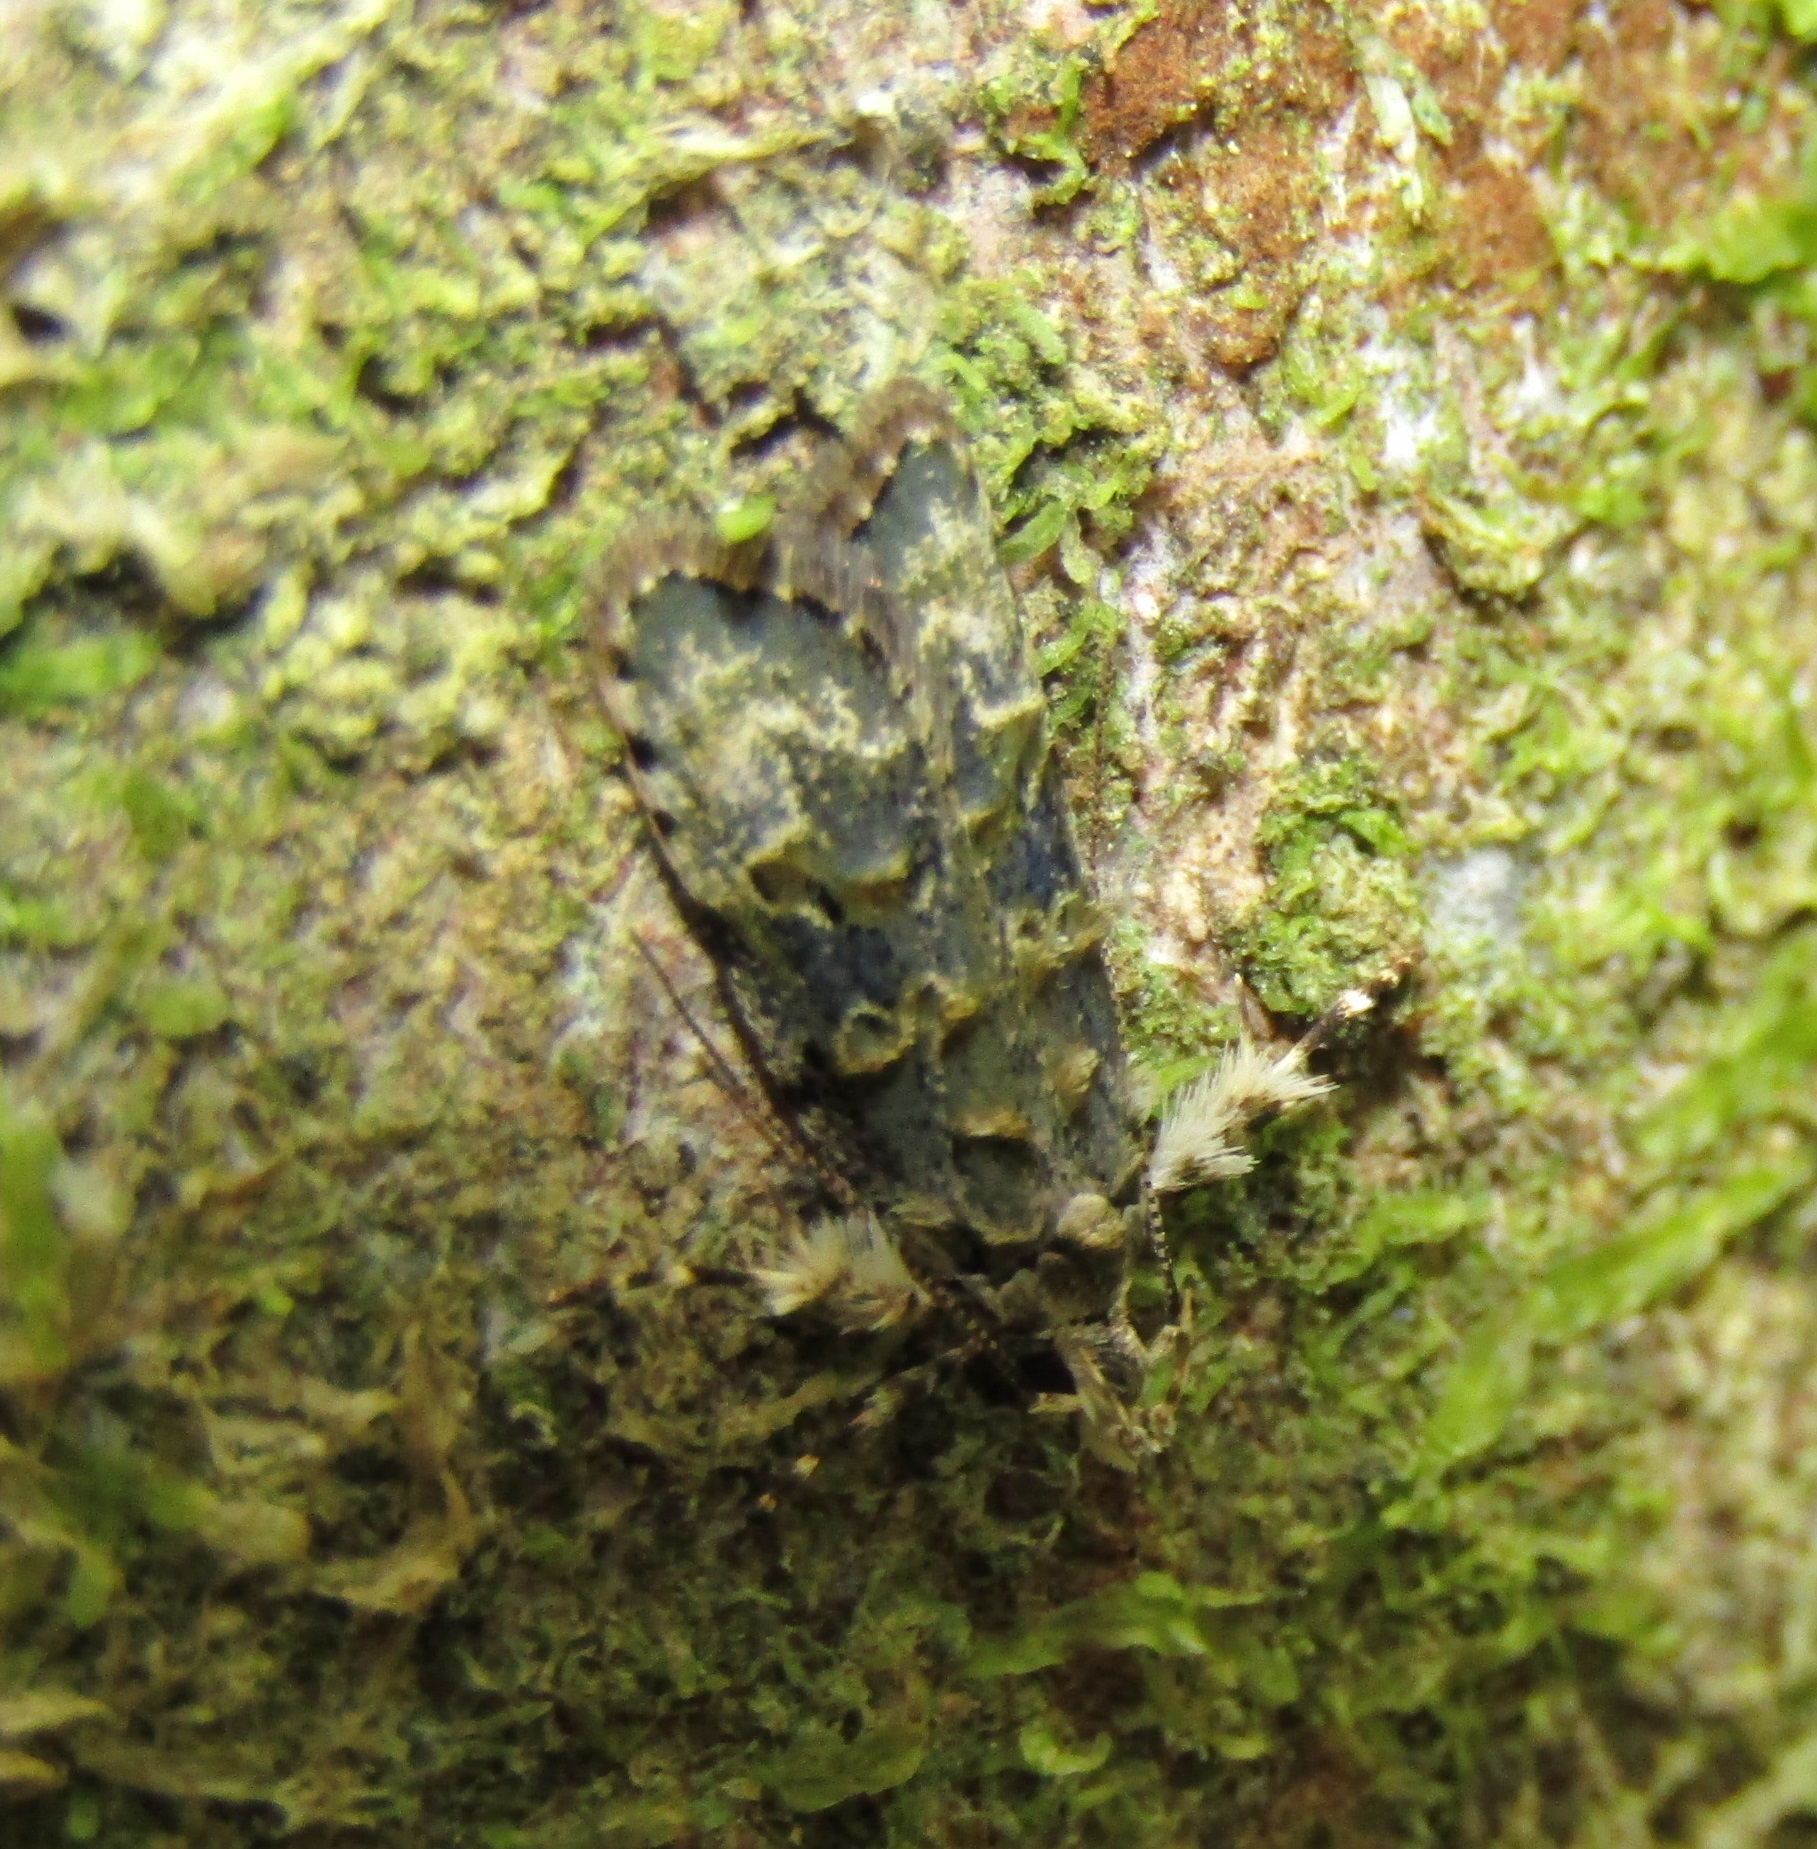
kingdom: Animalia
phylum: Arthropoda
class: Insecta
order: Lepidoptera
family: Oecophoridae
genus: Izatha
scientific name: Izatha prasophyta
